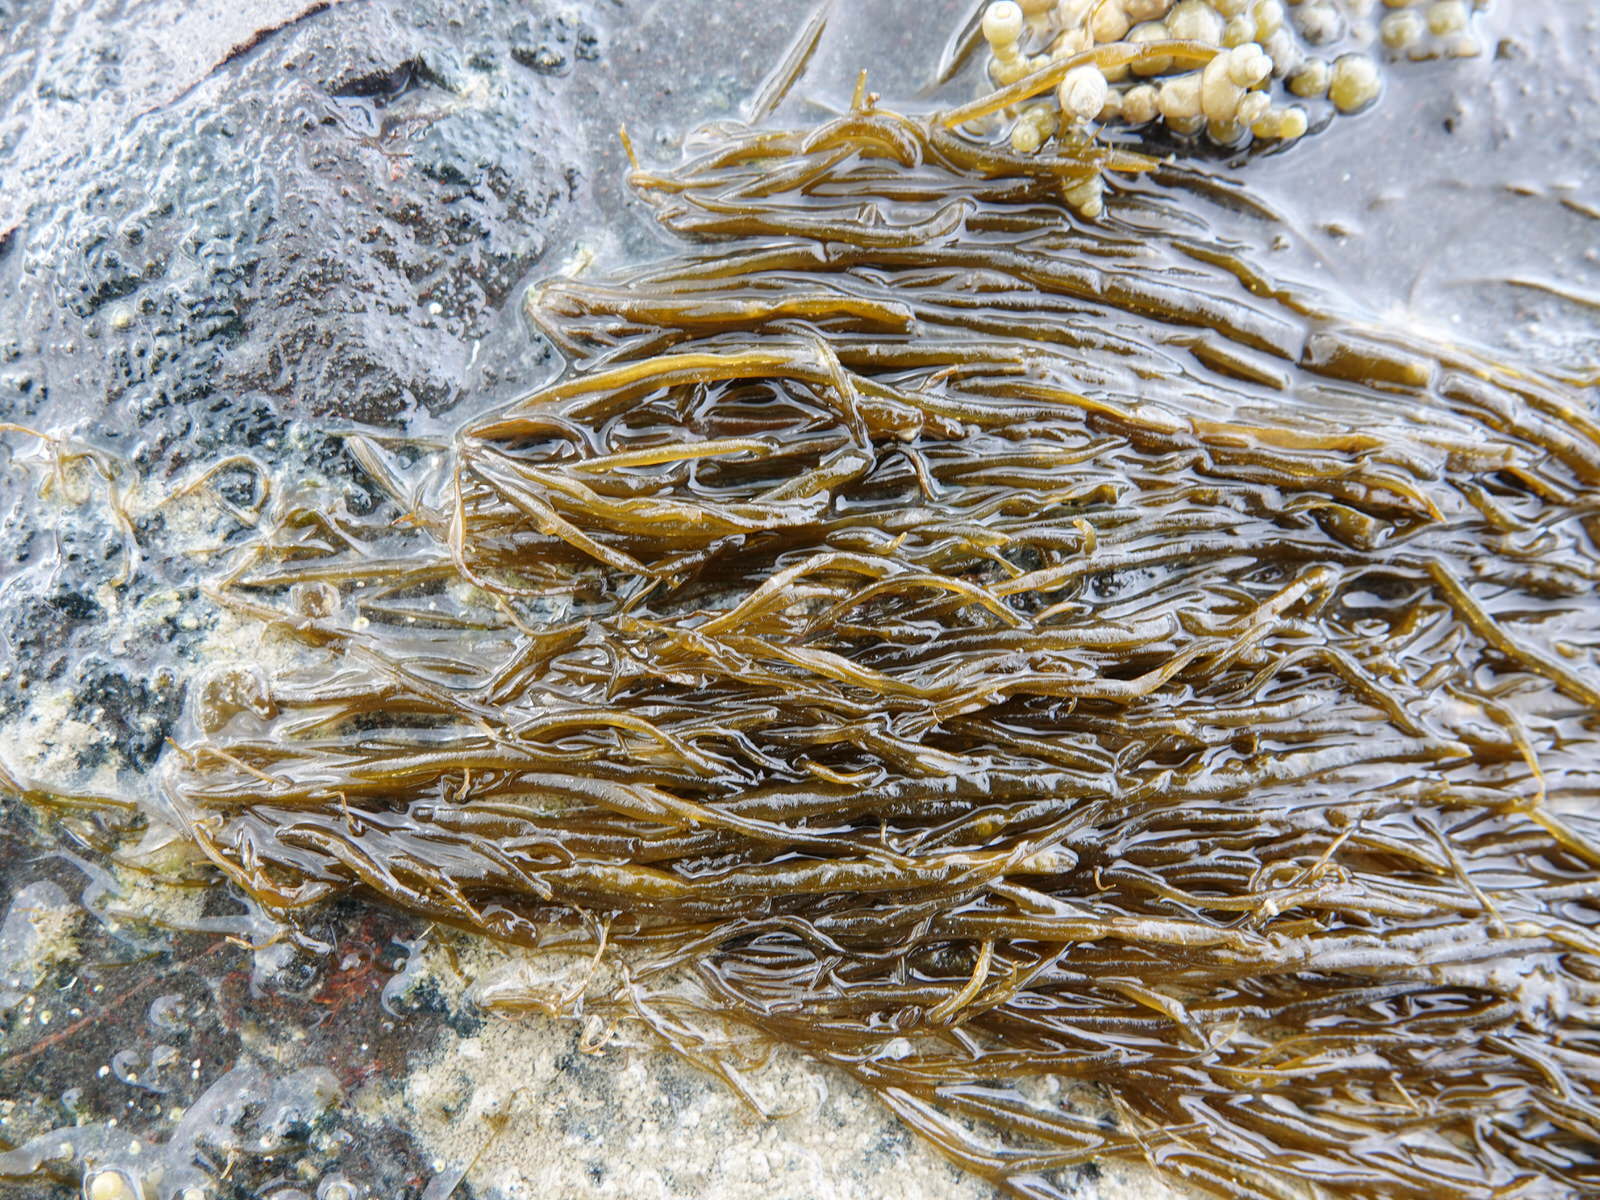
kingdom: Chromista
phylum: Ochrophyta
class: Phaeophyceae
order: Scytosiphonales
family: Scytosiphonaceae
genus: Scytosiphon
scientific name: Scytosiphon lomentaria
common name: Beanweed
